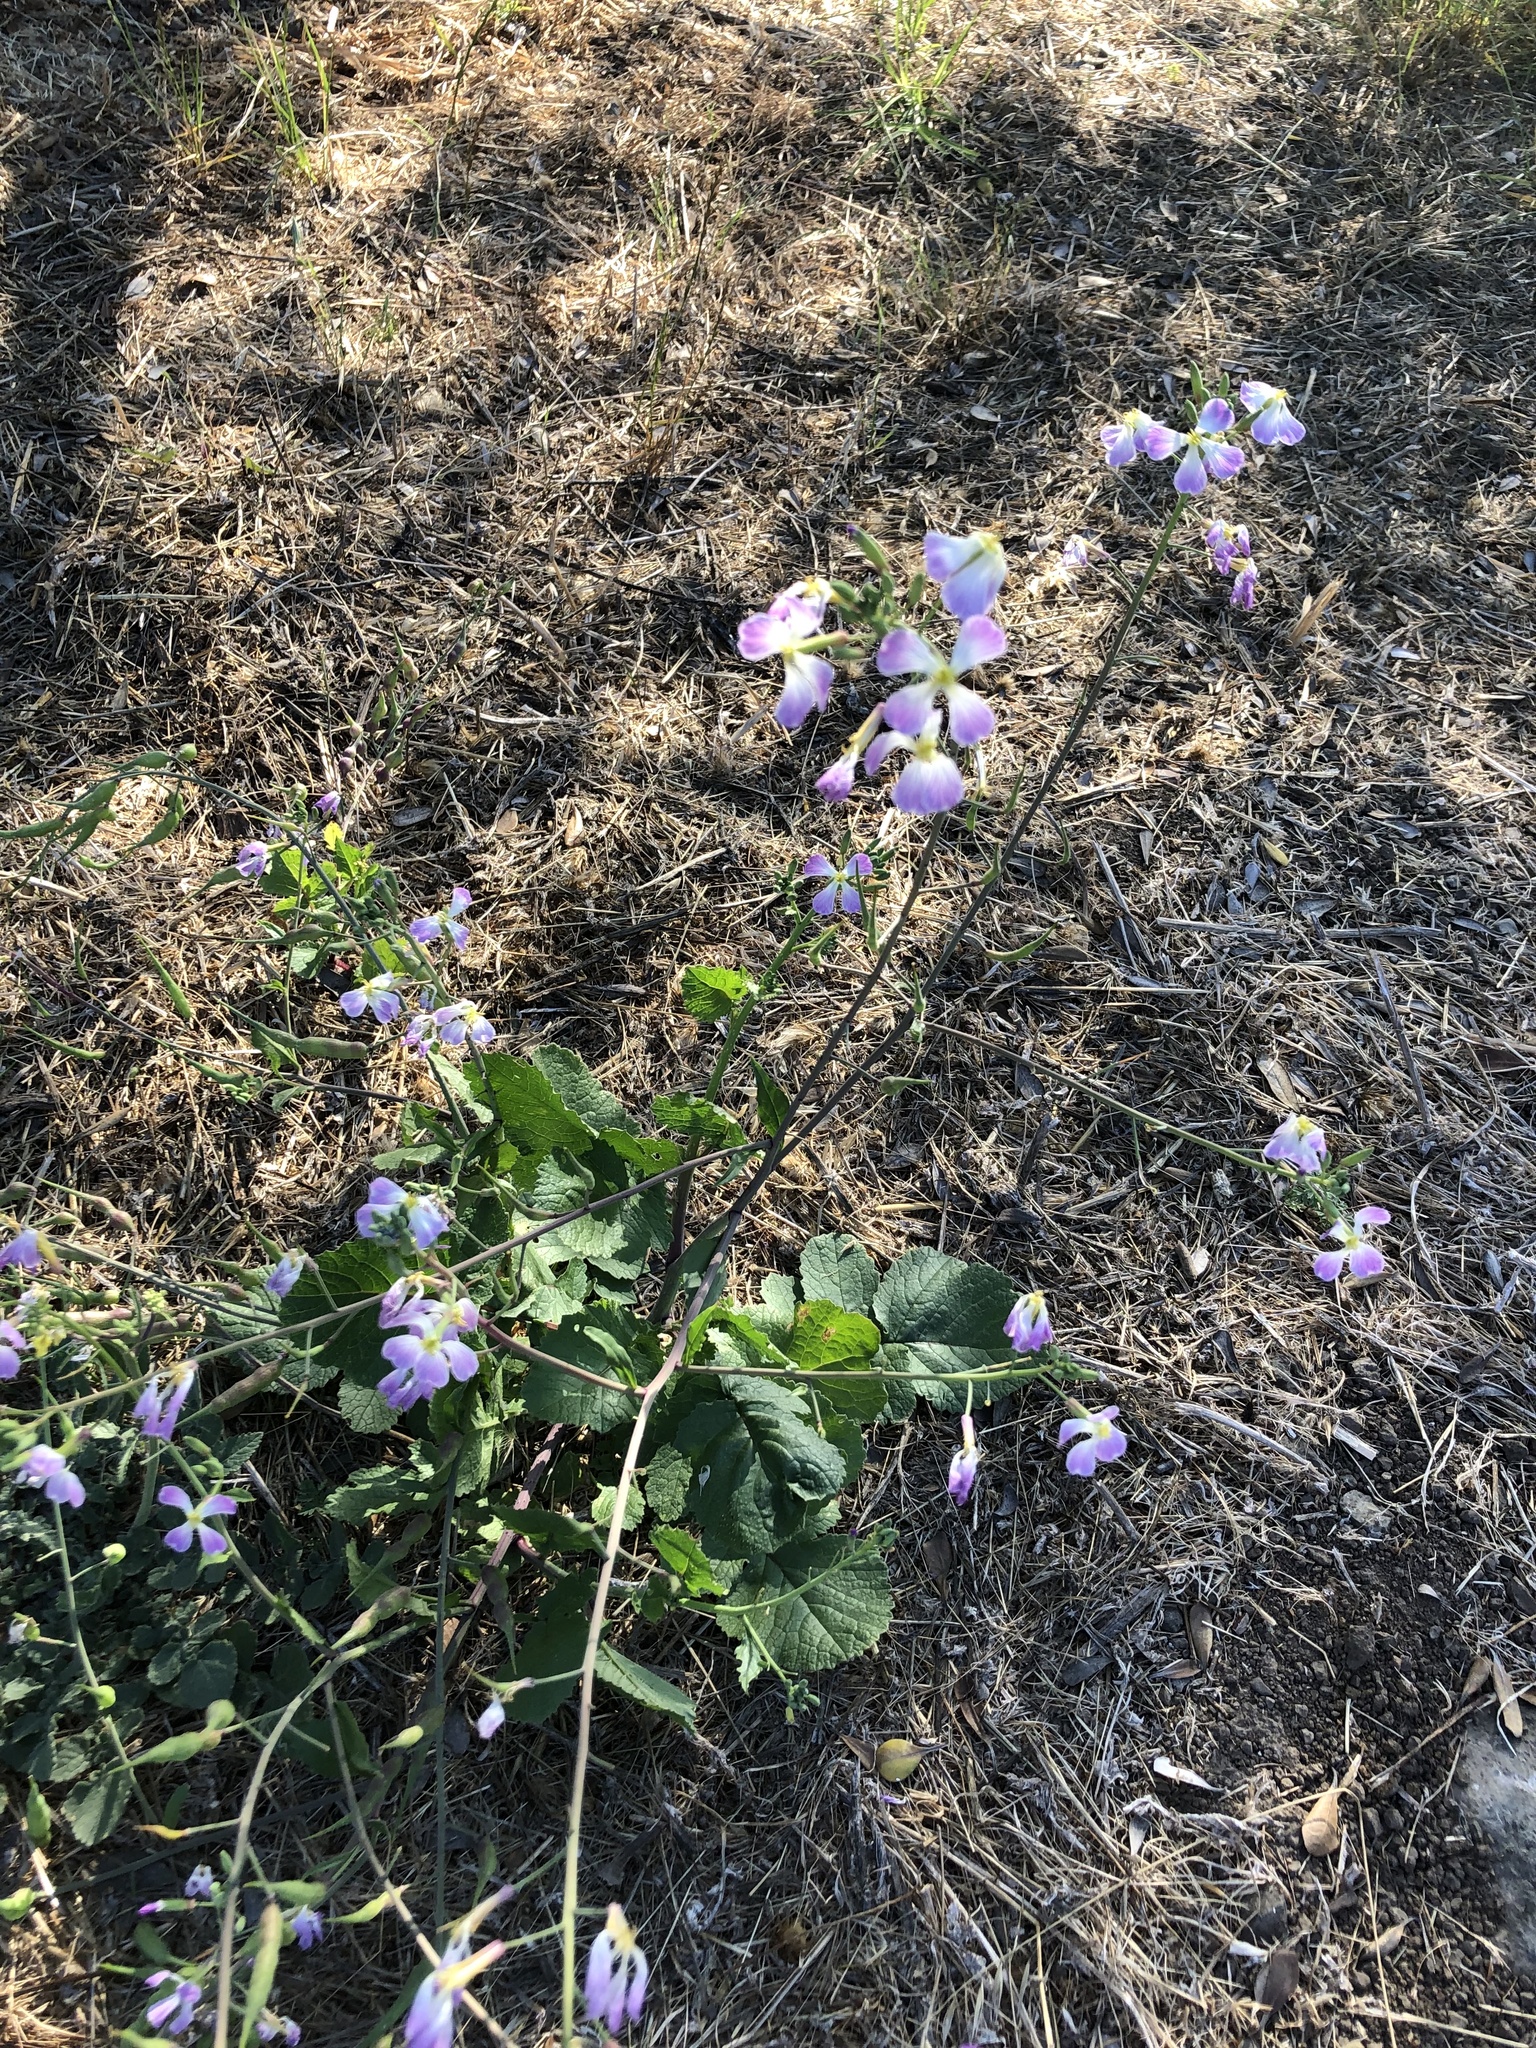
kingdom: Plantae
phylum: Tracheophyta
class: Magnoliopsida
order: Brassicales
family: Brassicaceae
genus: Raphanus
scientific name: Raphanus sativus
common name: Cultivated radish
